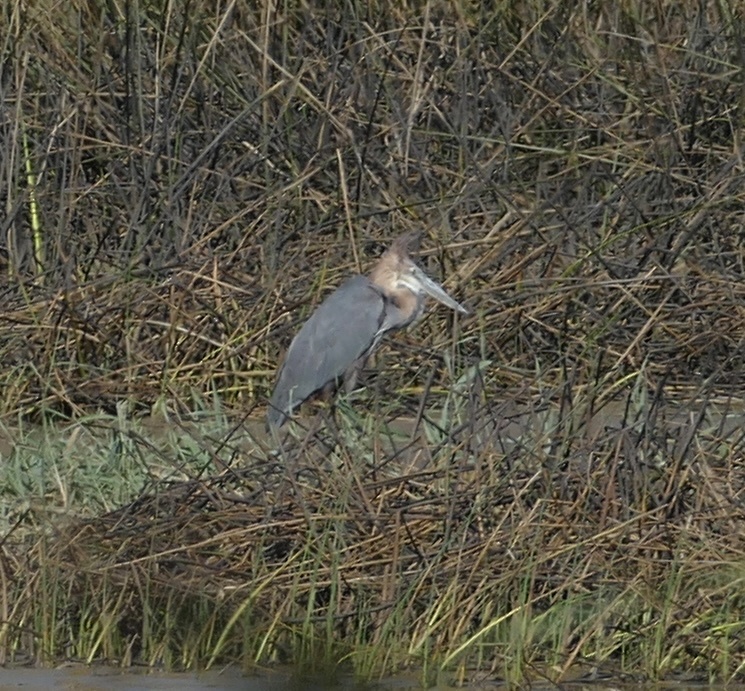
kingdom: Animalia
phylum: Chordata
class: Aves
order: Pelecaniformes
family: Ardeidae
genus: Ardea
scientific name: Ardea goliath
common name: Goliath heron
